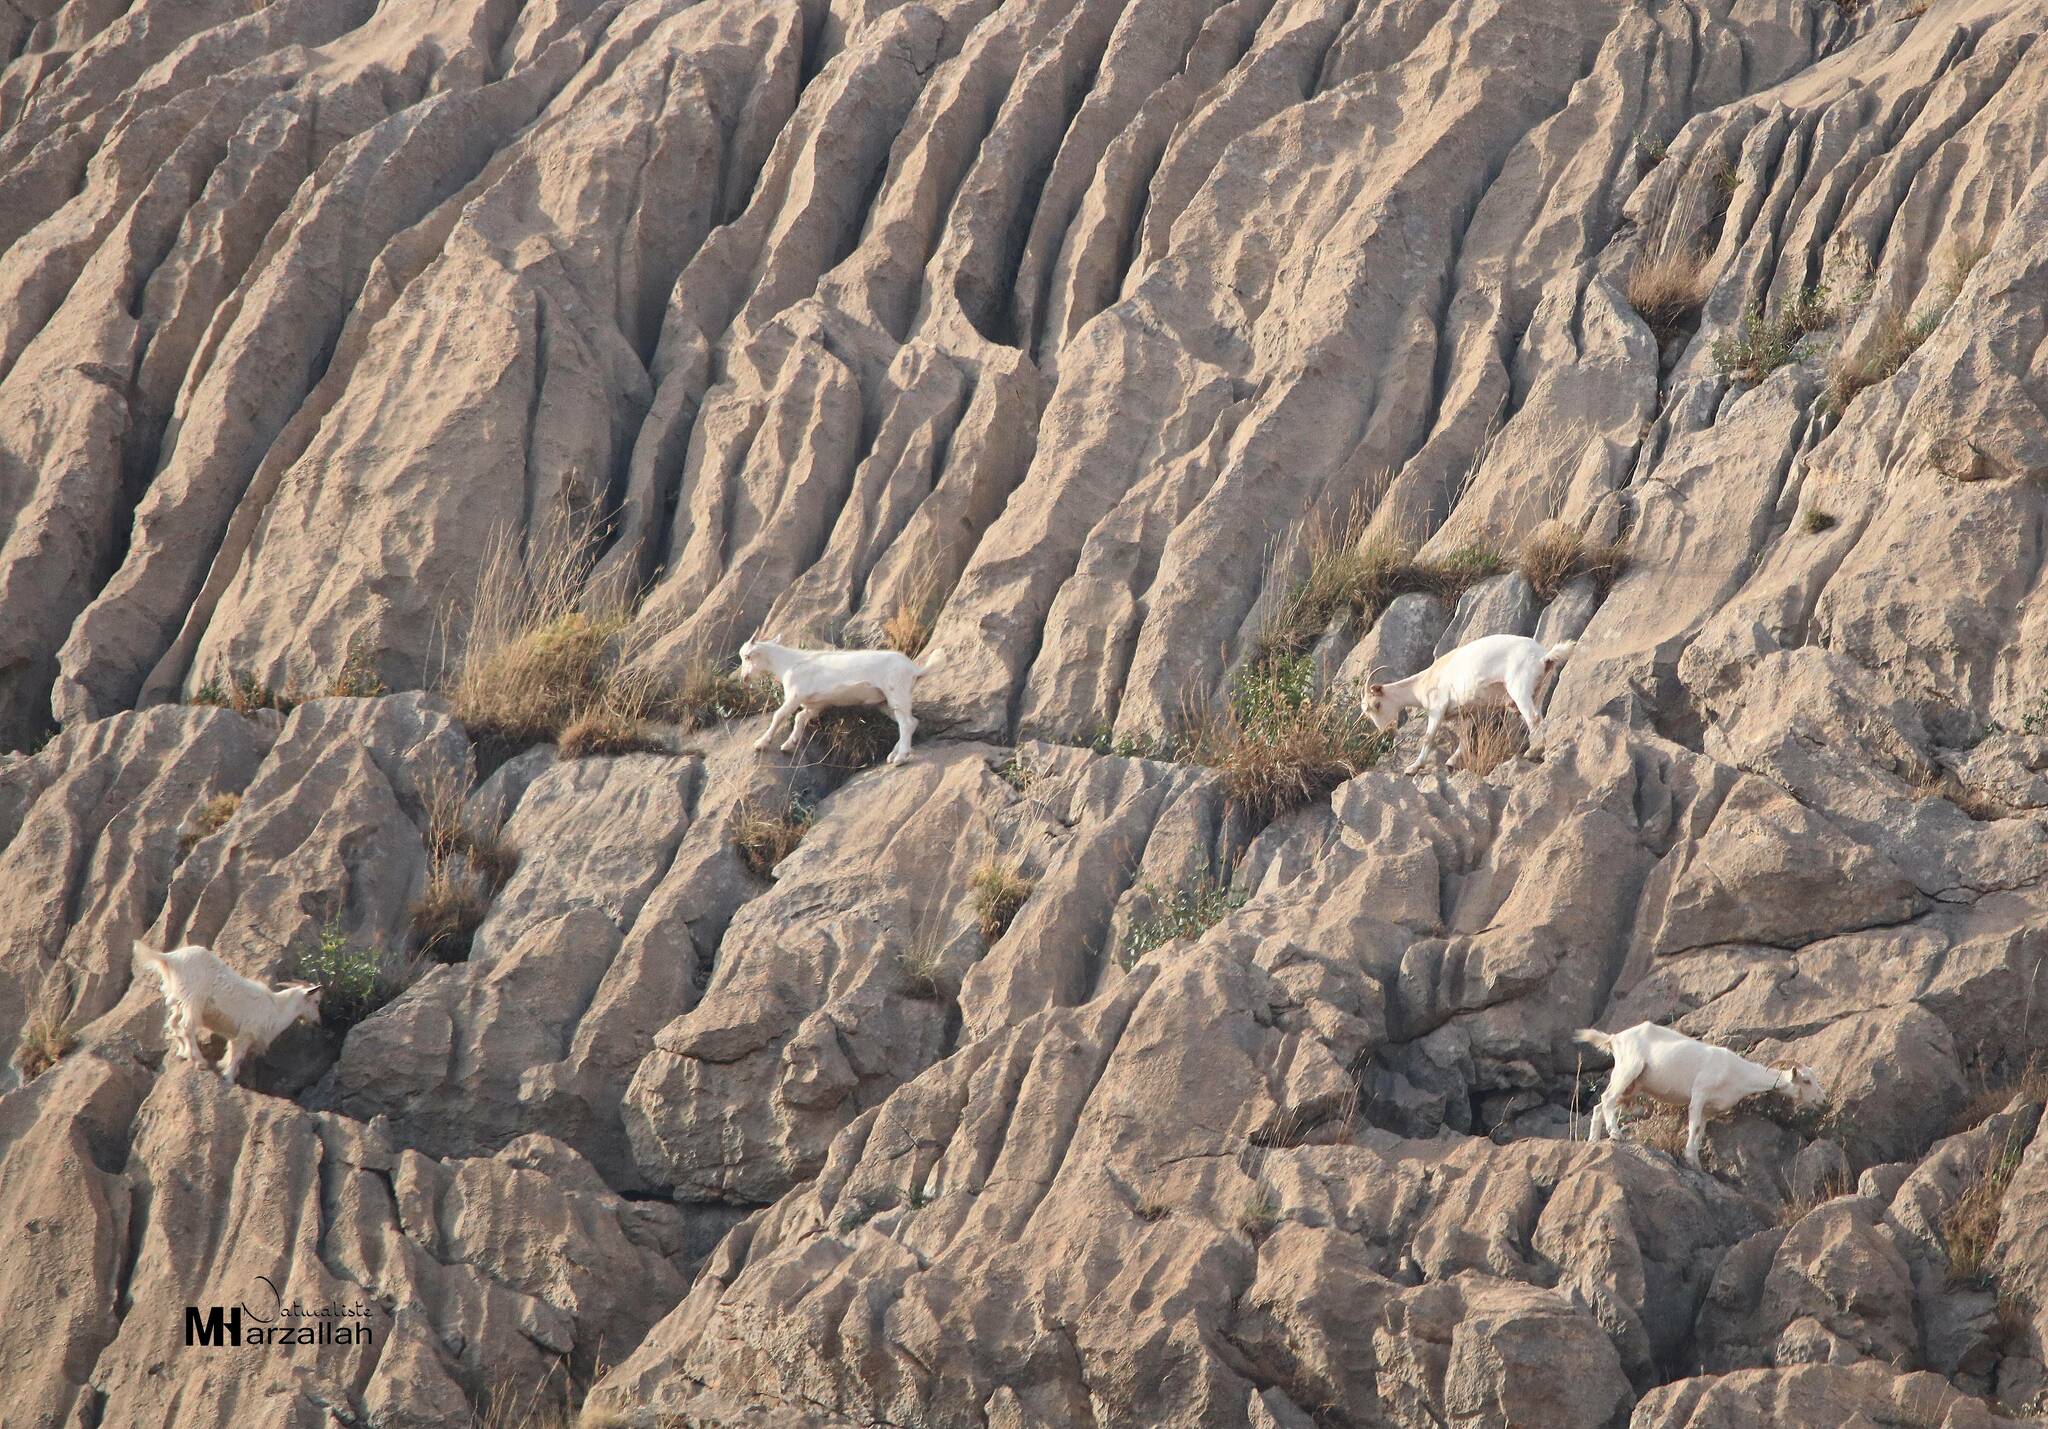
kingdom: Animalia
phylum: Chordata
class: Mammalia
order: Artiodactyla
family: Bovidae
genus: Capra
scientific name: Capra hircus
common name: Domestic goat
